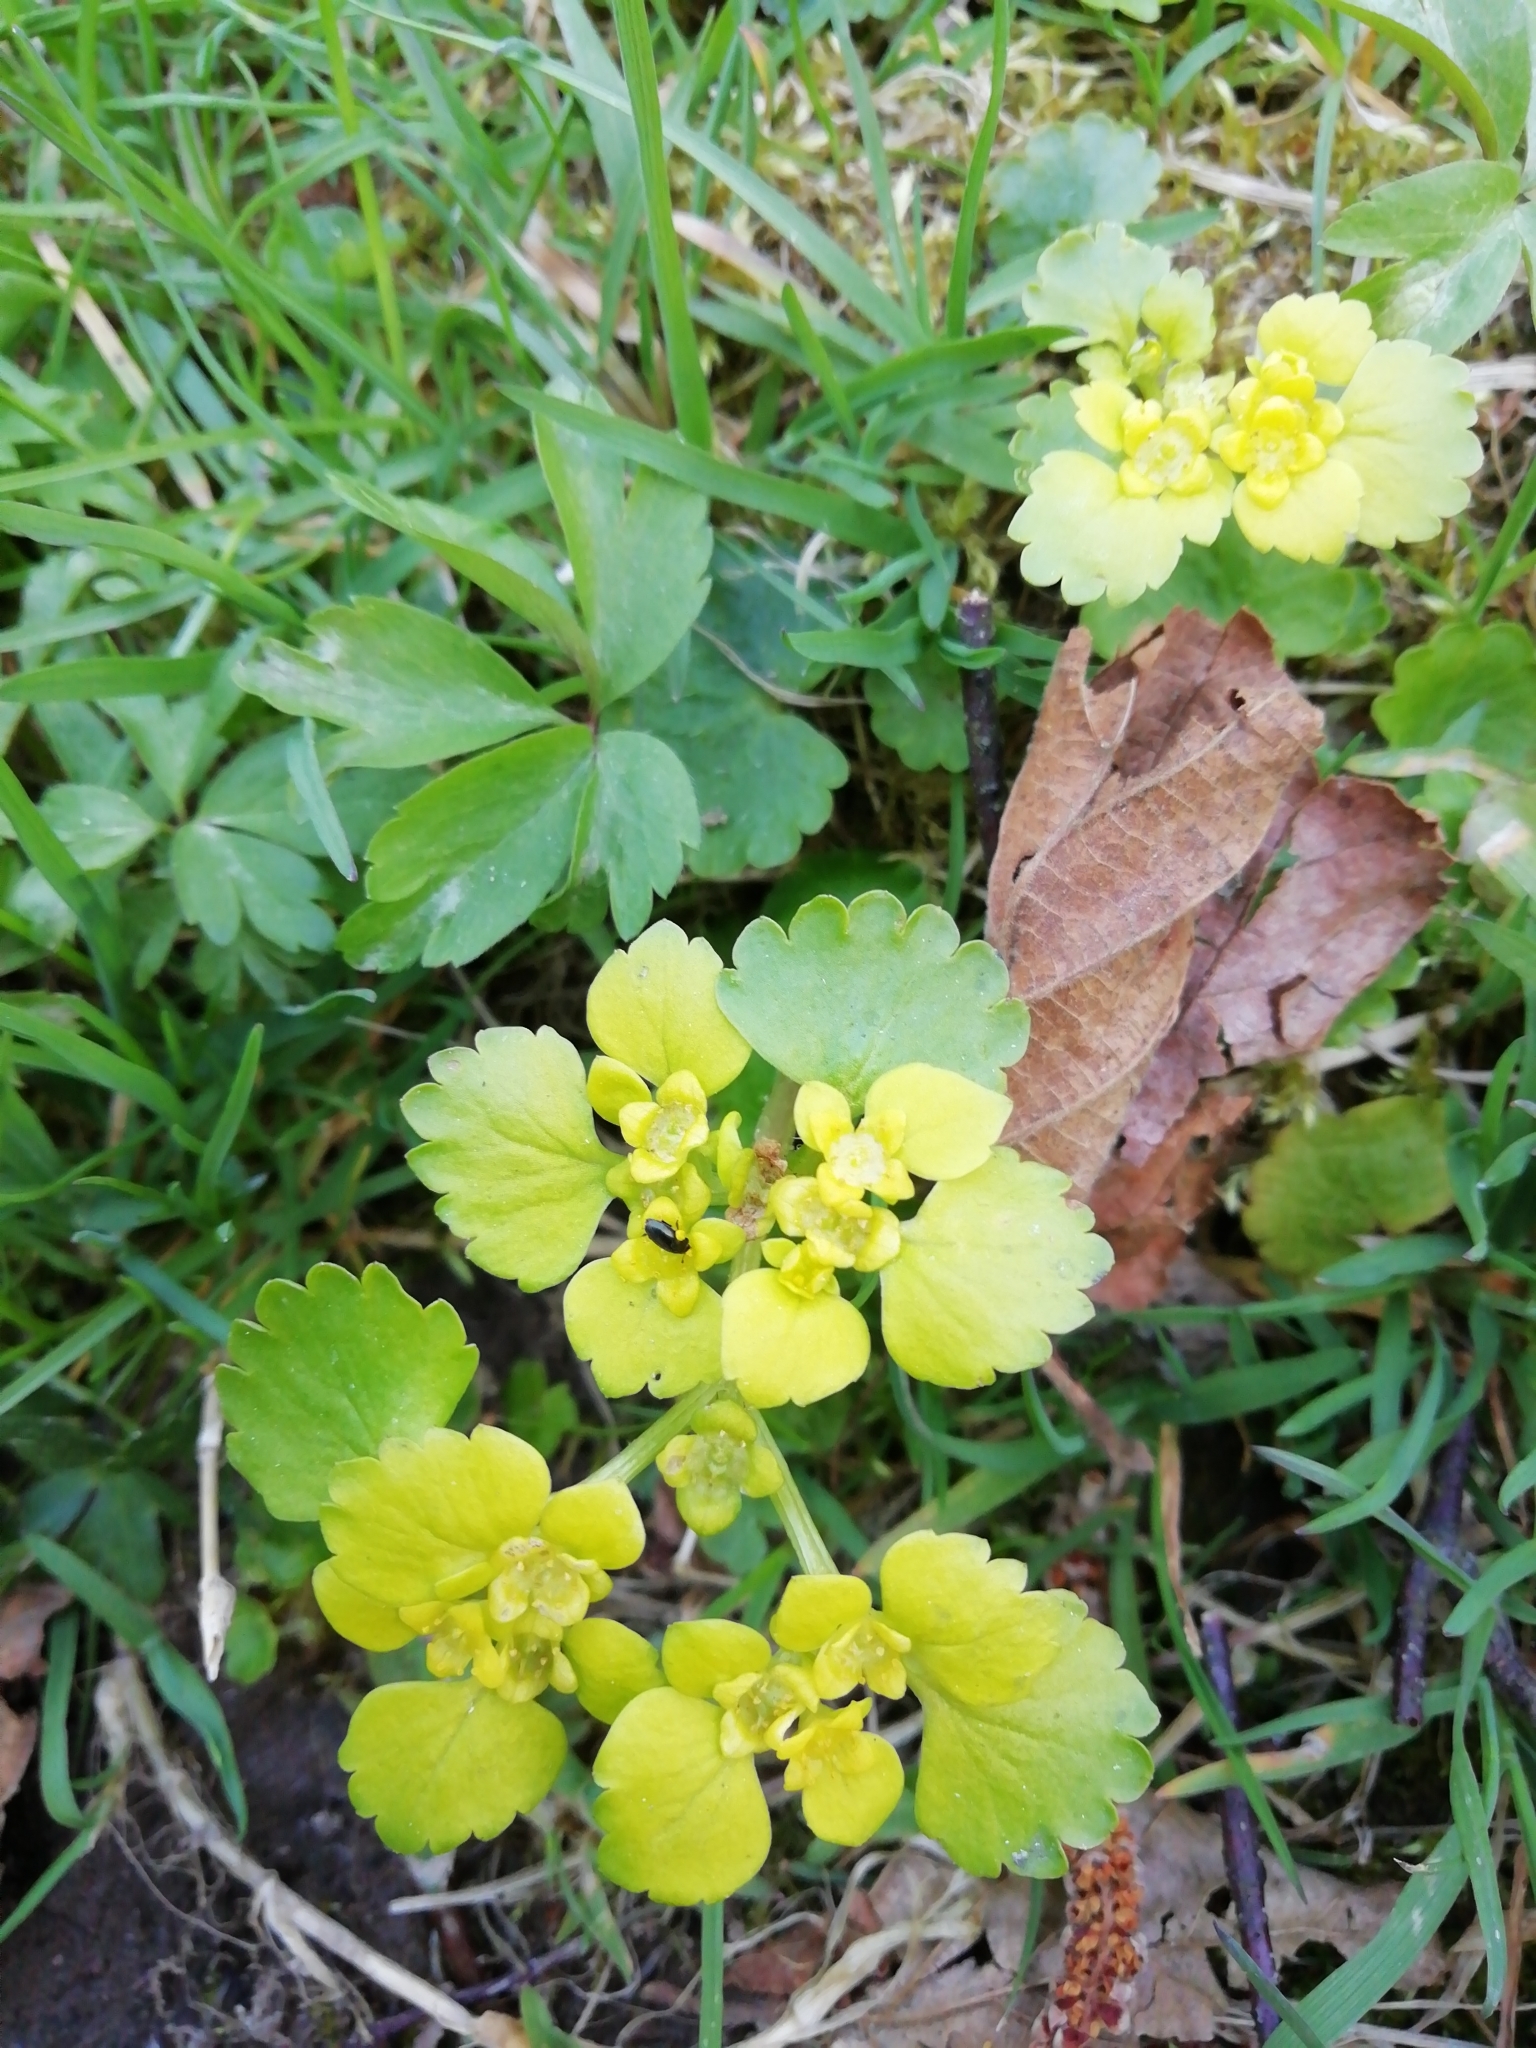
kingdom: Plantae
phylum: Tracheophyta
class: Magnoliopsida
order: Saxifragales
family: Saxifragaceae
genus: Chrysosplenium
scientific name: Chrysosplenium alternifolium
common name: Alternate-leaved golden-saxifrage
